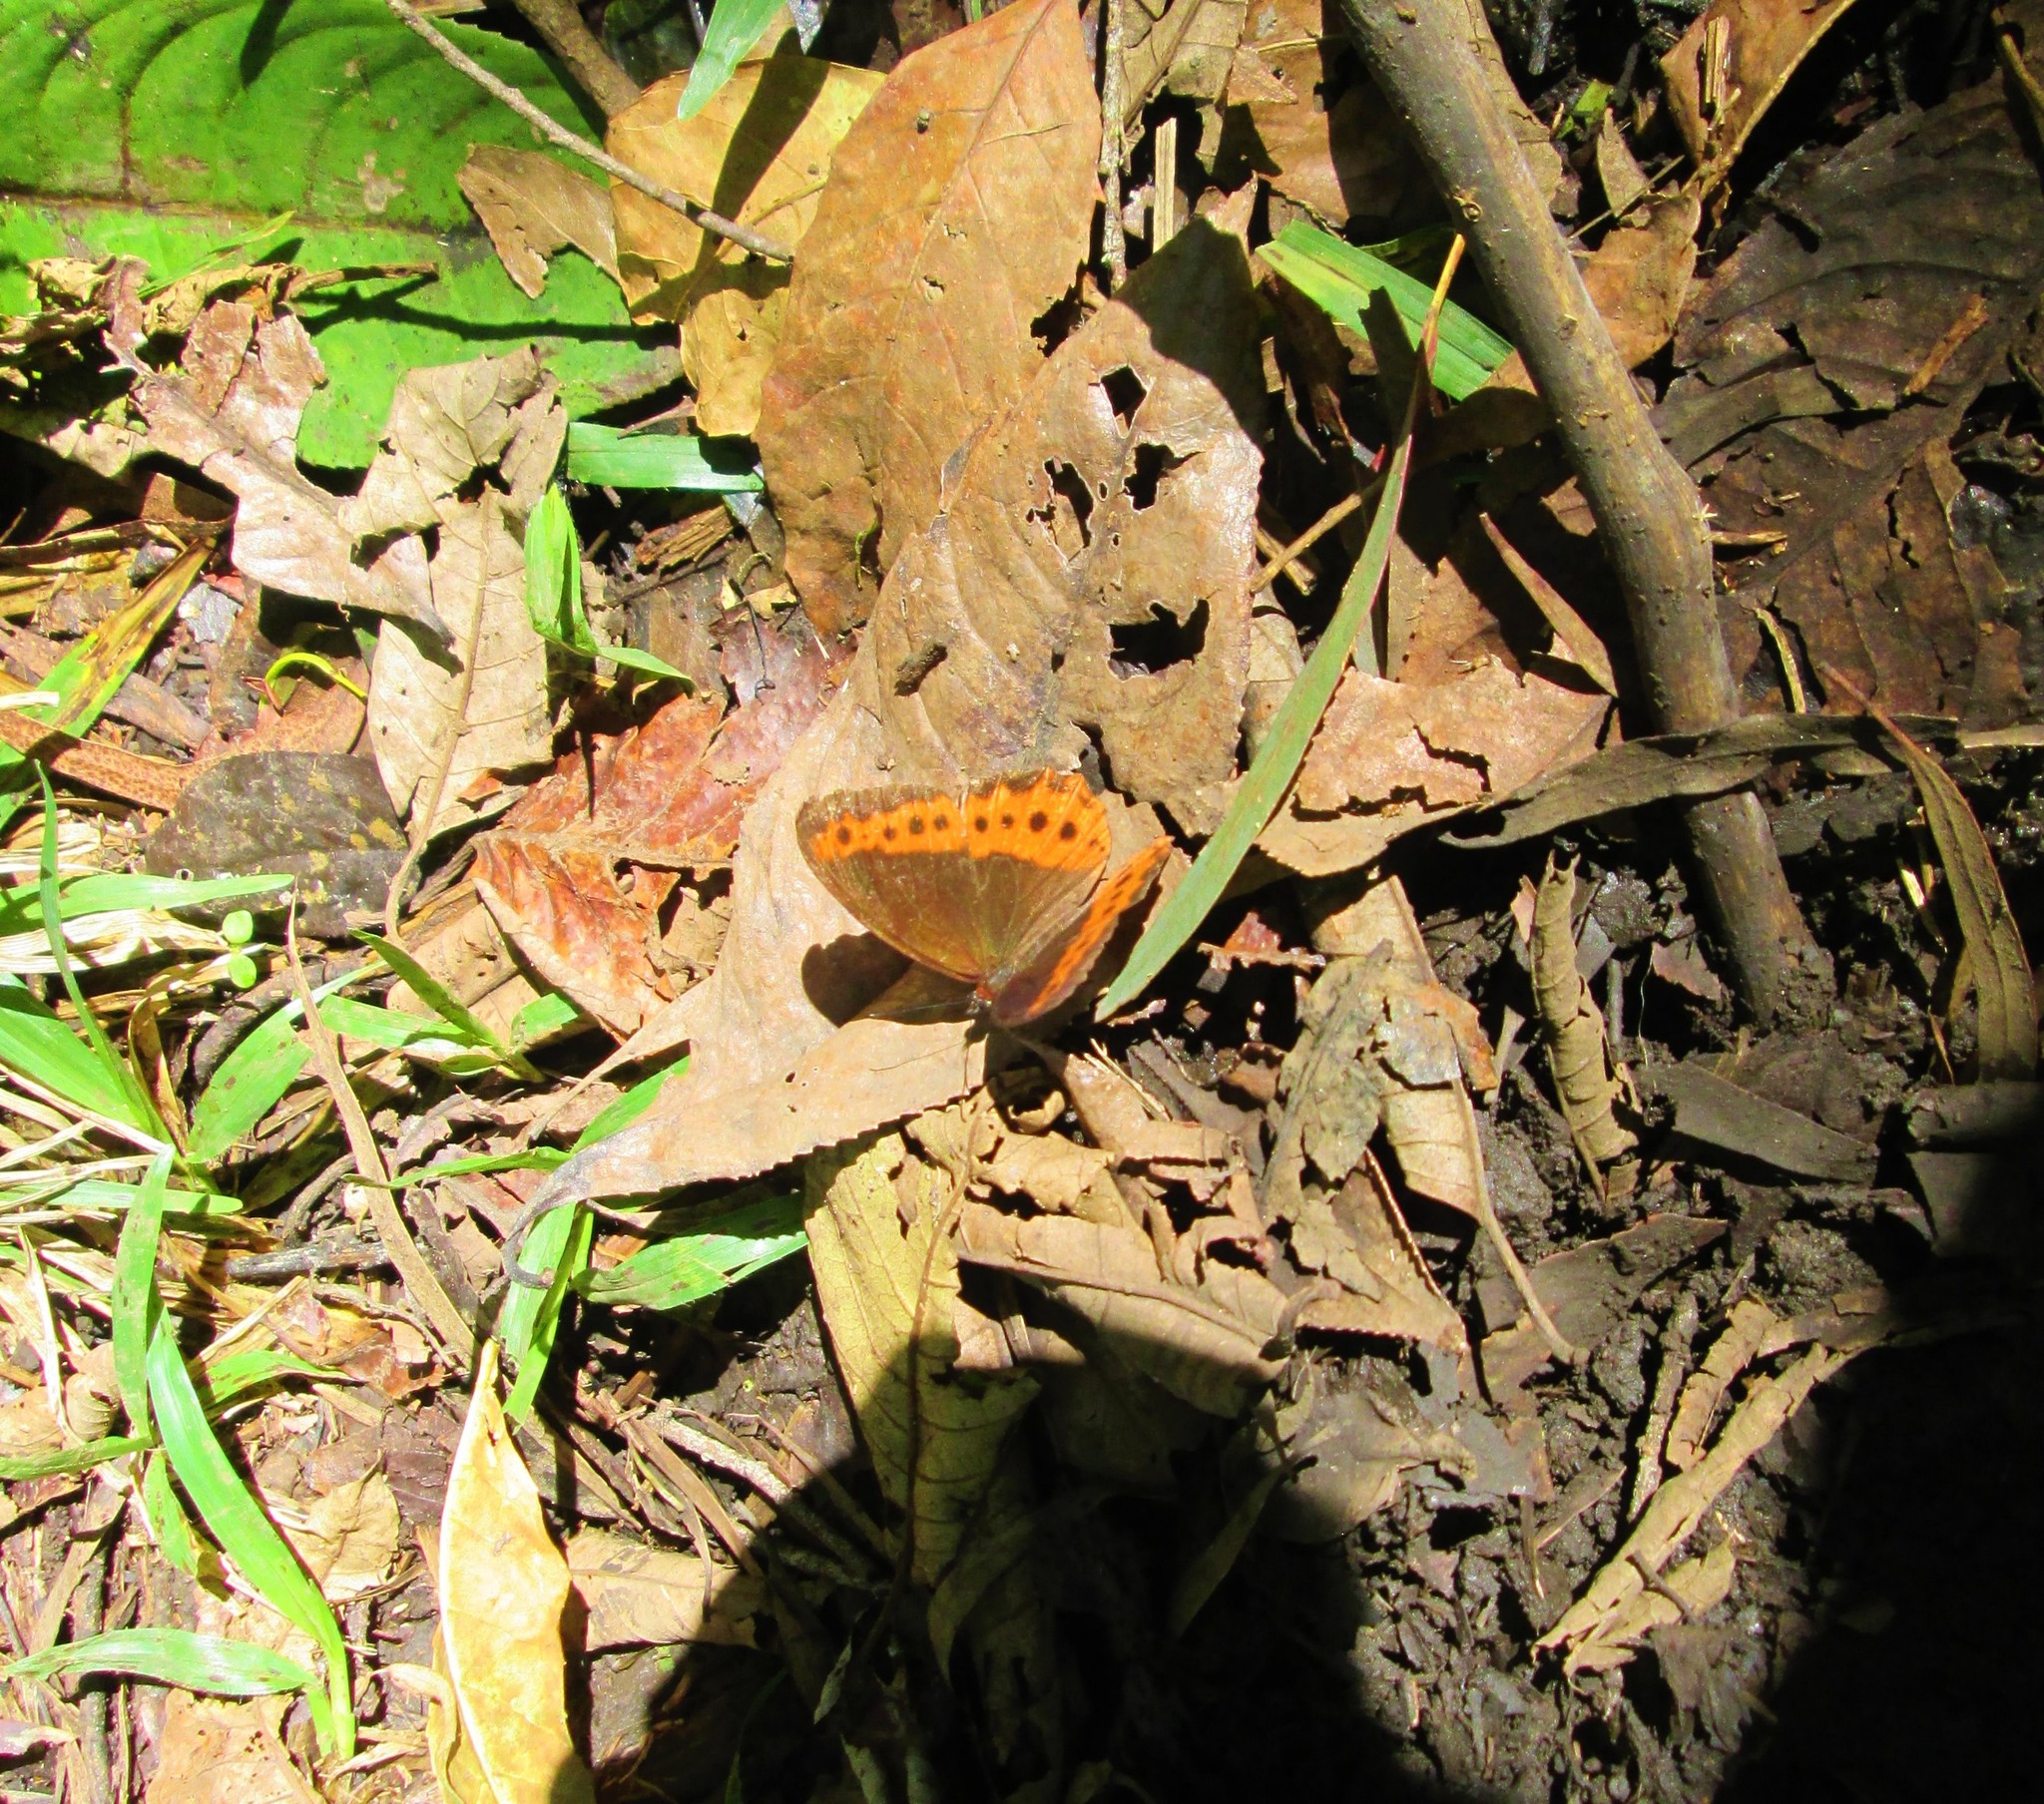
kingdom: Animalia
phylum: Arthropoda
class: Insecta
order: Lepidoptera
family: Nymphalidae
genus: Oxeoschistus
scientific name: Oxeoschistus puerta
